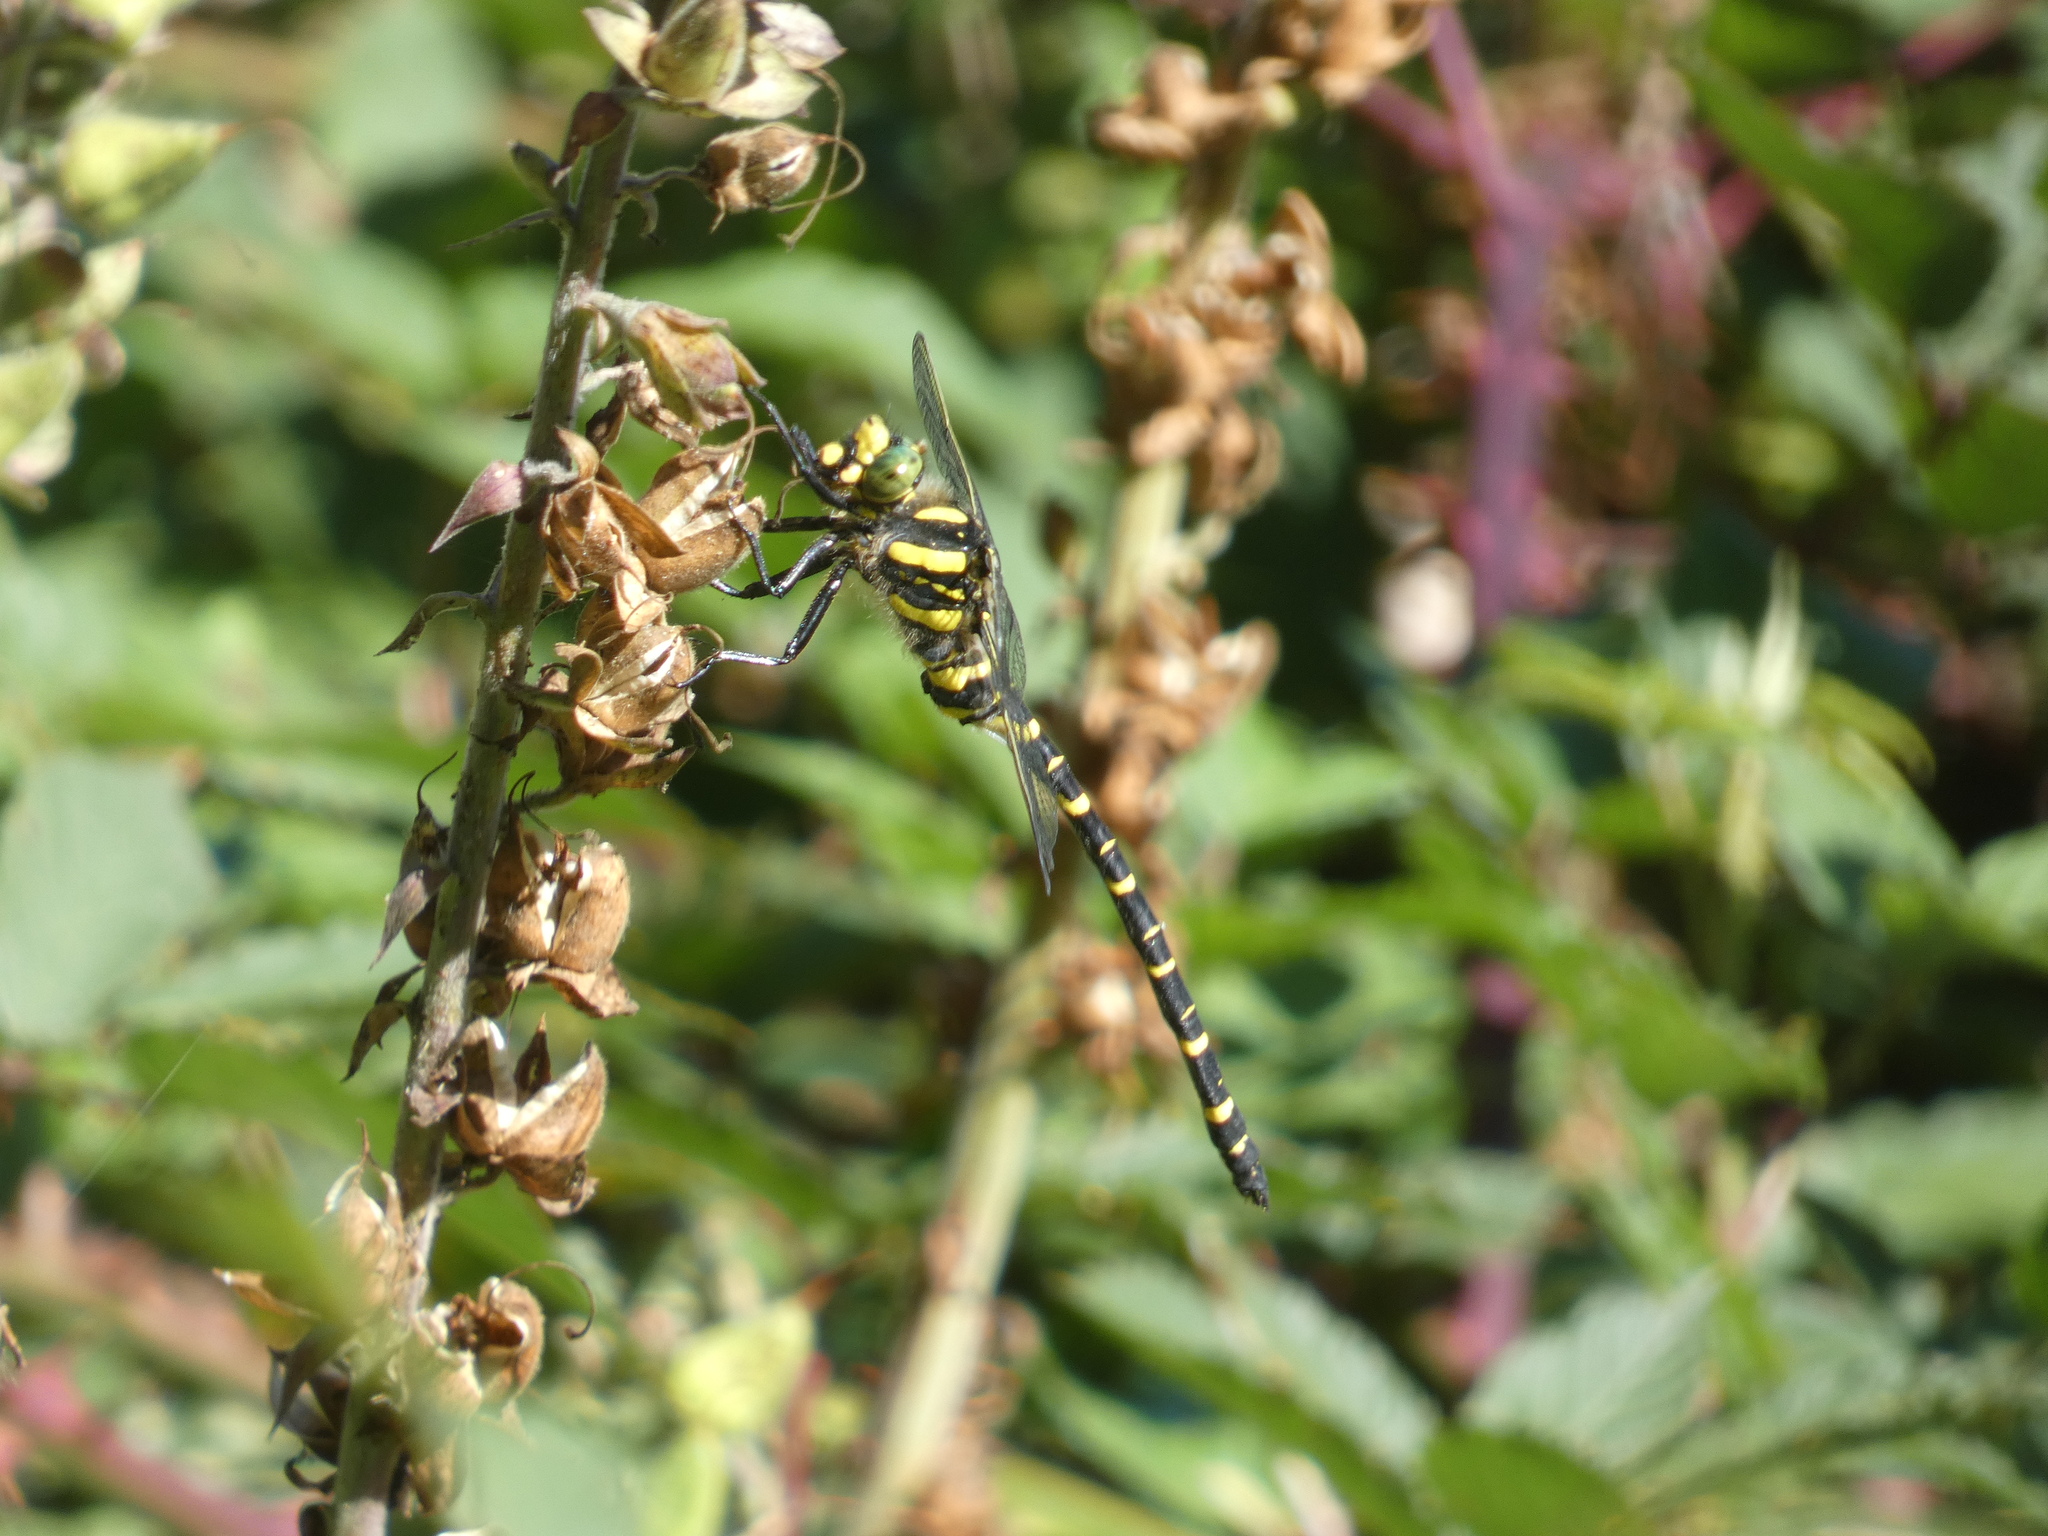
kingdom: Animalia
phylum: Arthropoda
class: Insecta
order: Odonata
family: Cordulegastridae
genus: Cordulegaster
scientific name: Cordulegaster boltonii
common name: Golden-ringed dragonfly
